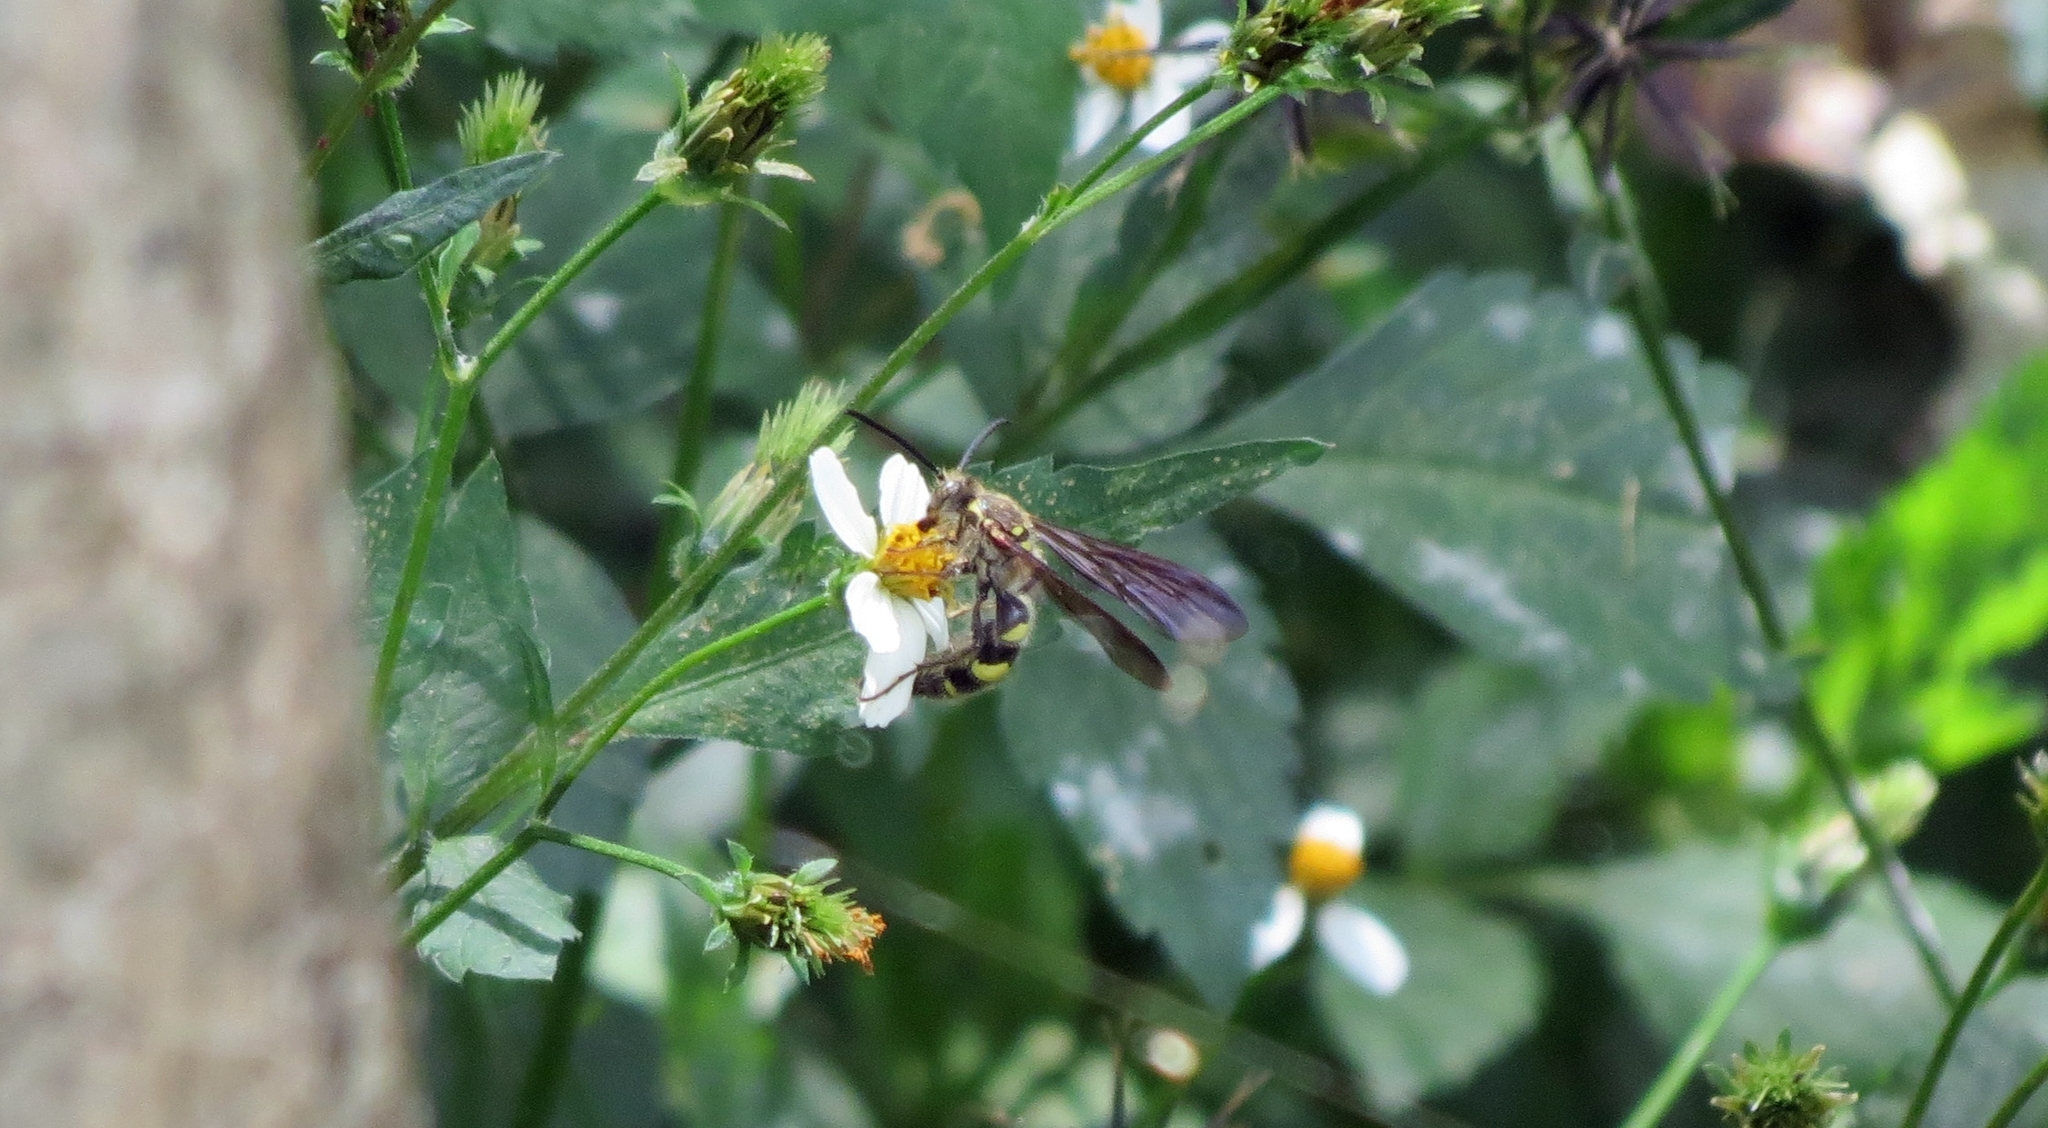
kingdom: Animalia
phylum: Arthropoda
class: Insecta
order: Hymenoptera
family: Scoliidae
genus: Xanthocampsomeris
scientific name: Xanthocampsomeris hesterae
